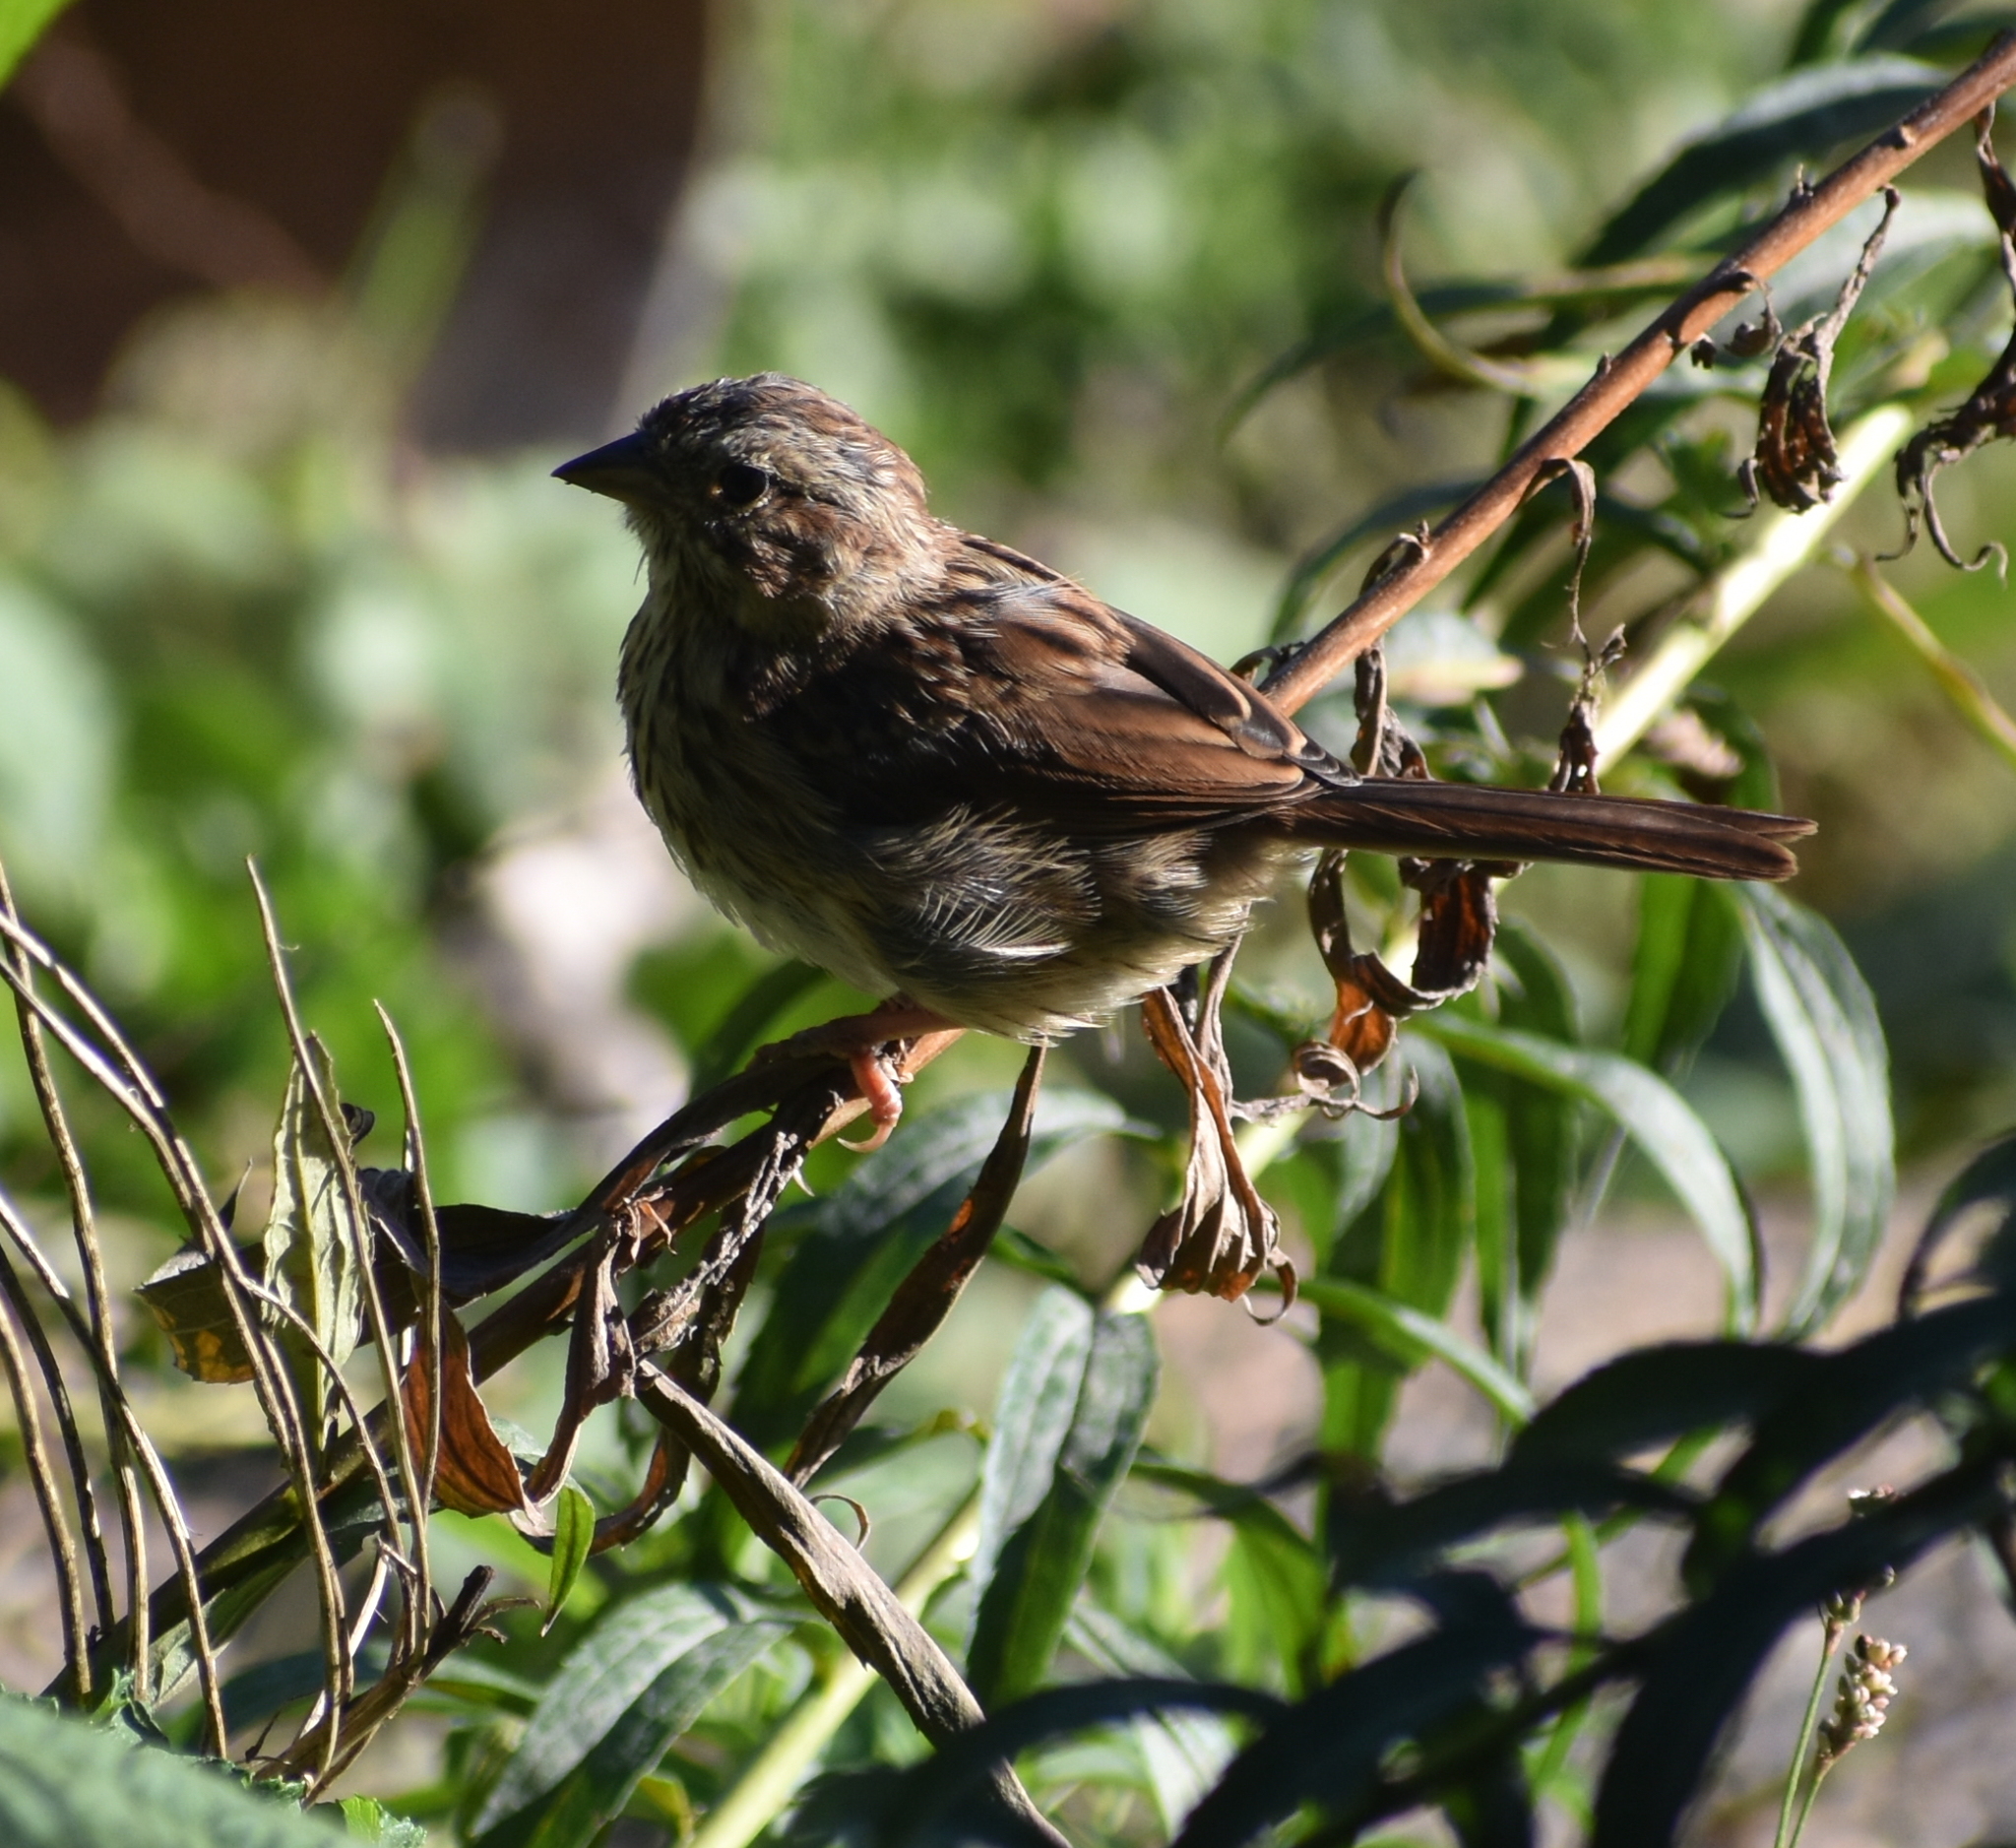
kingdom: Animalia
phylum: Chordata
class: Aves
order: Passeriformes
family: Passerellidae
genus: Melospiza
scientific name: Melospiza melodia
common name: Song sparrow
